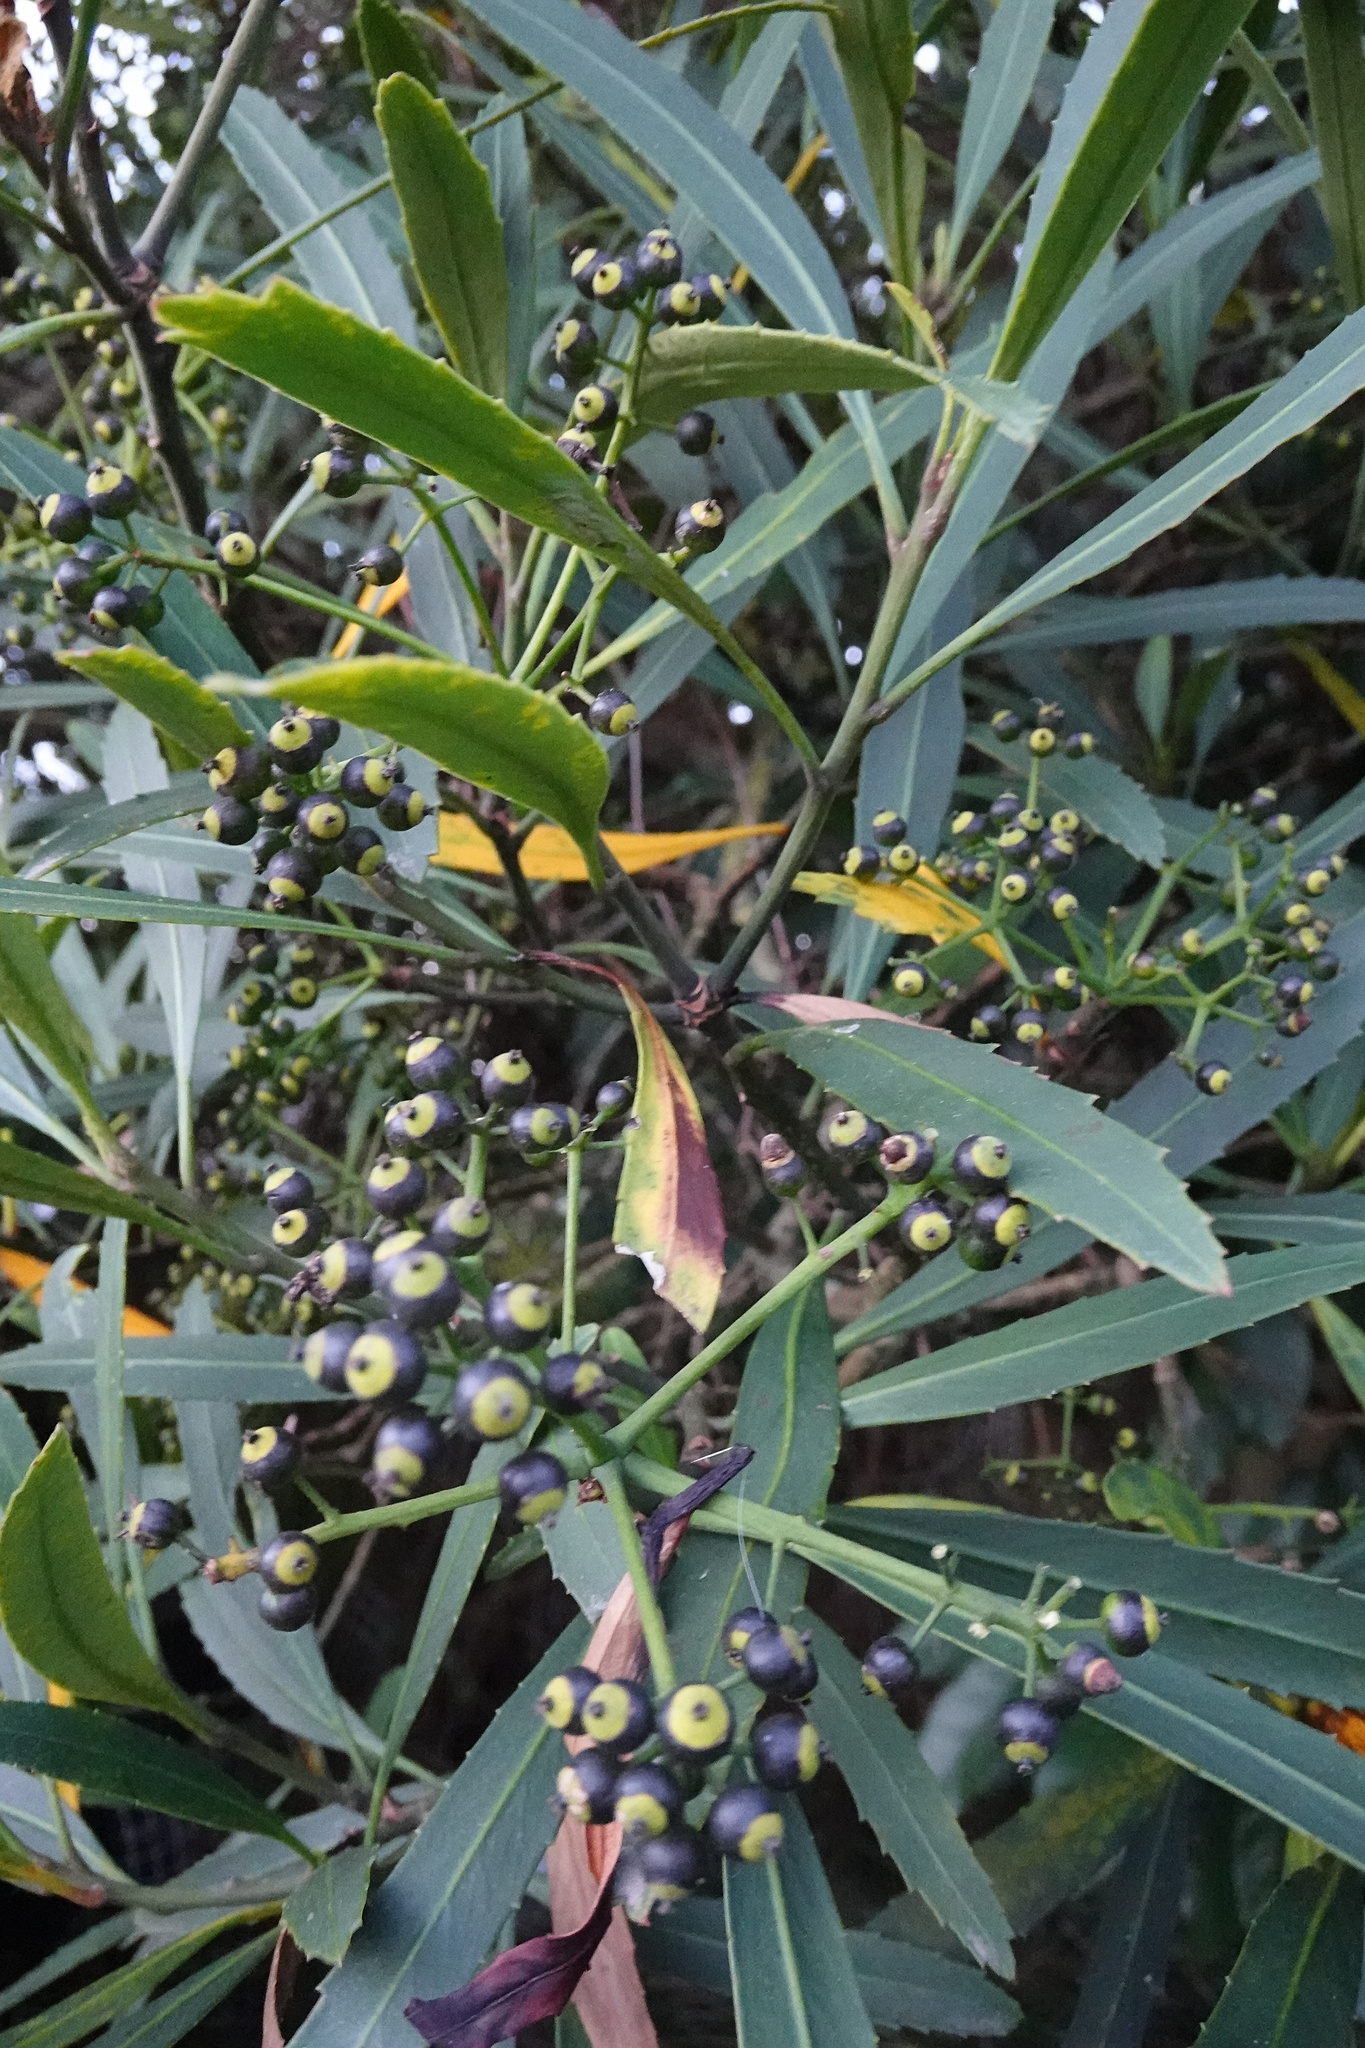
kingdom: Plantae
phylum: Tracheophyta
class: Magnoliopsida
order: Apiales
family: Araliaceae
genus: Pseudopanax
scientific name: Pseudopanax crassifolius
